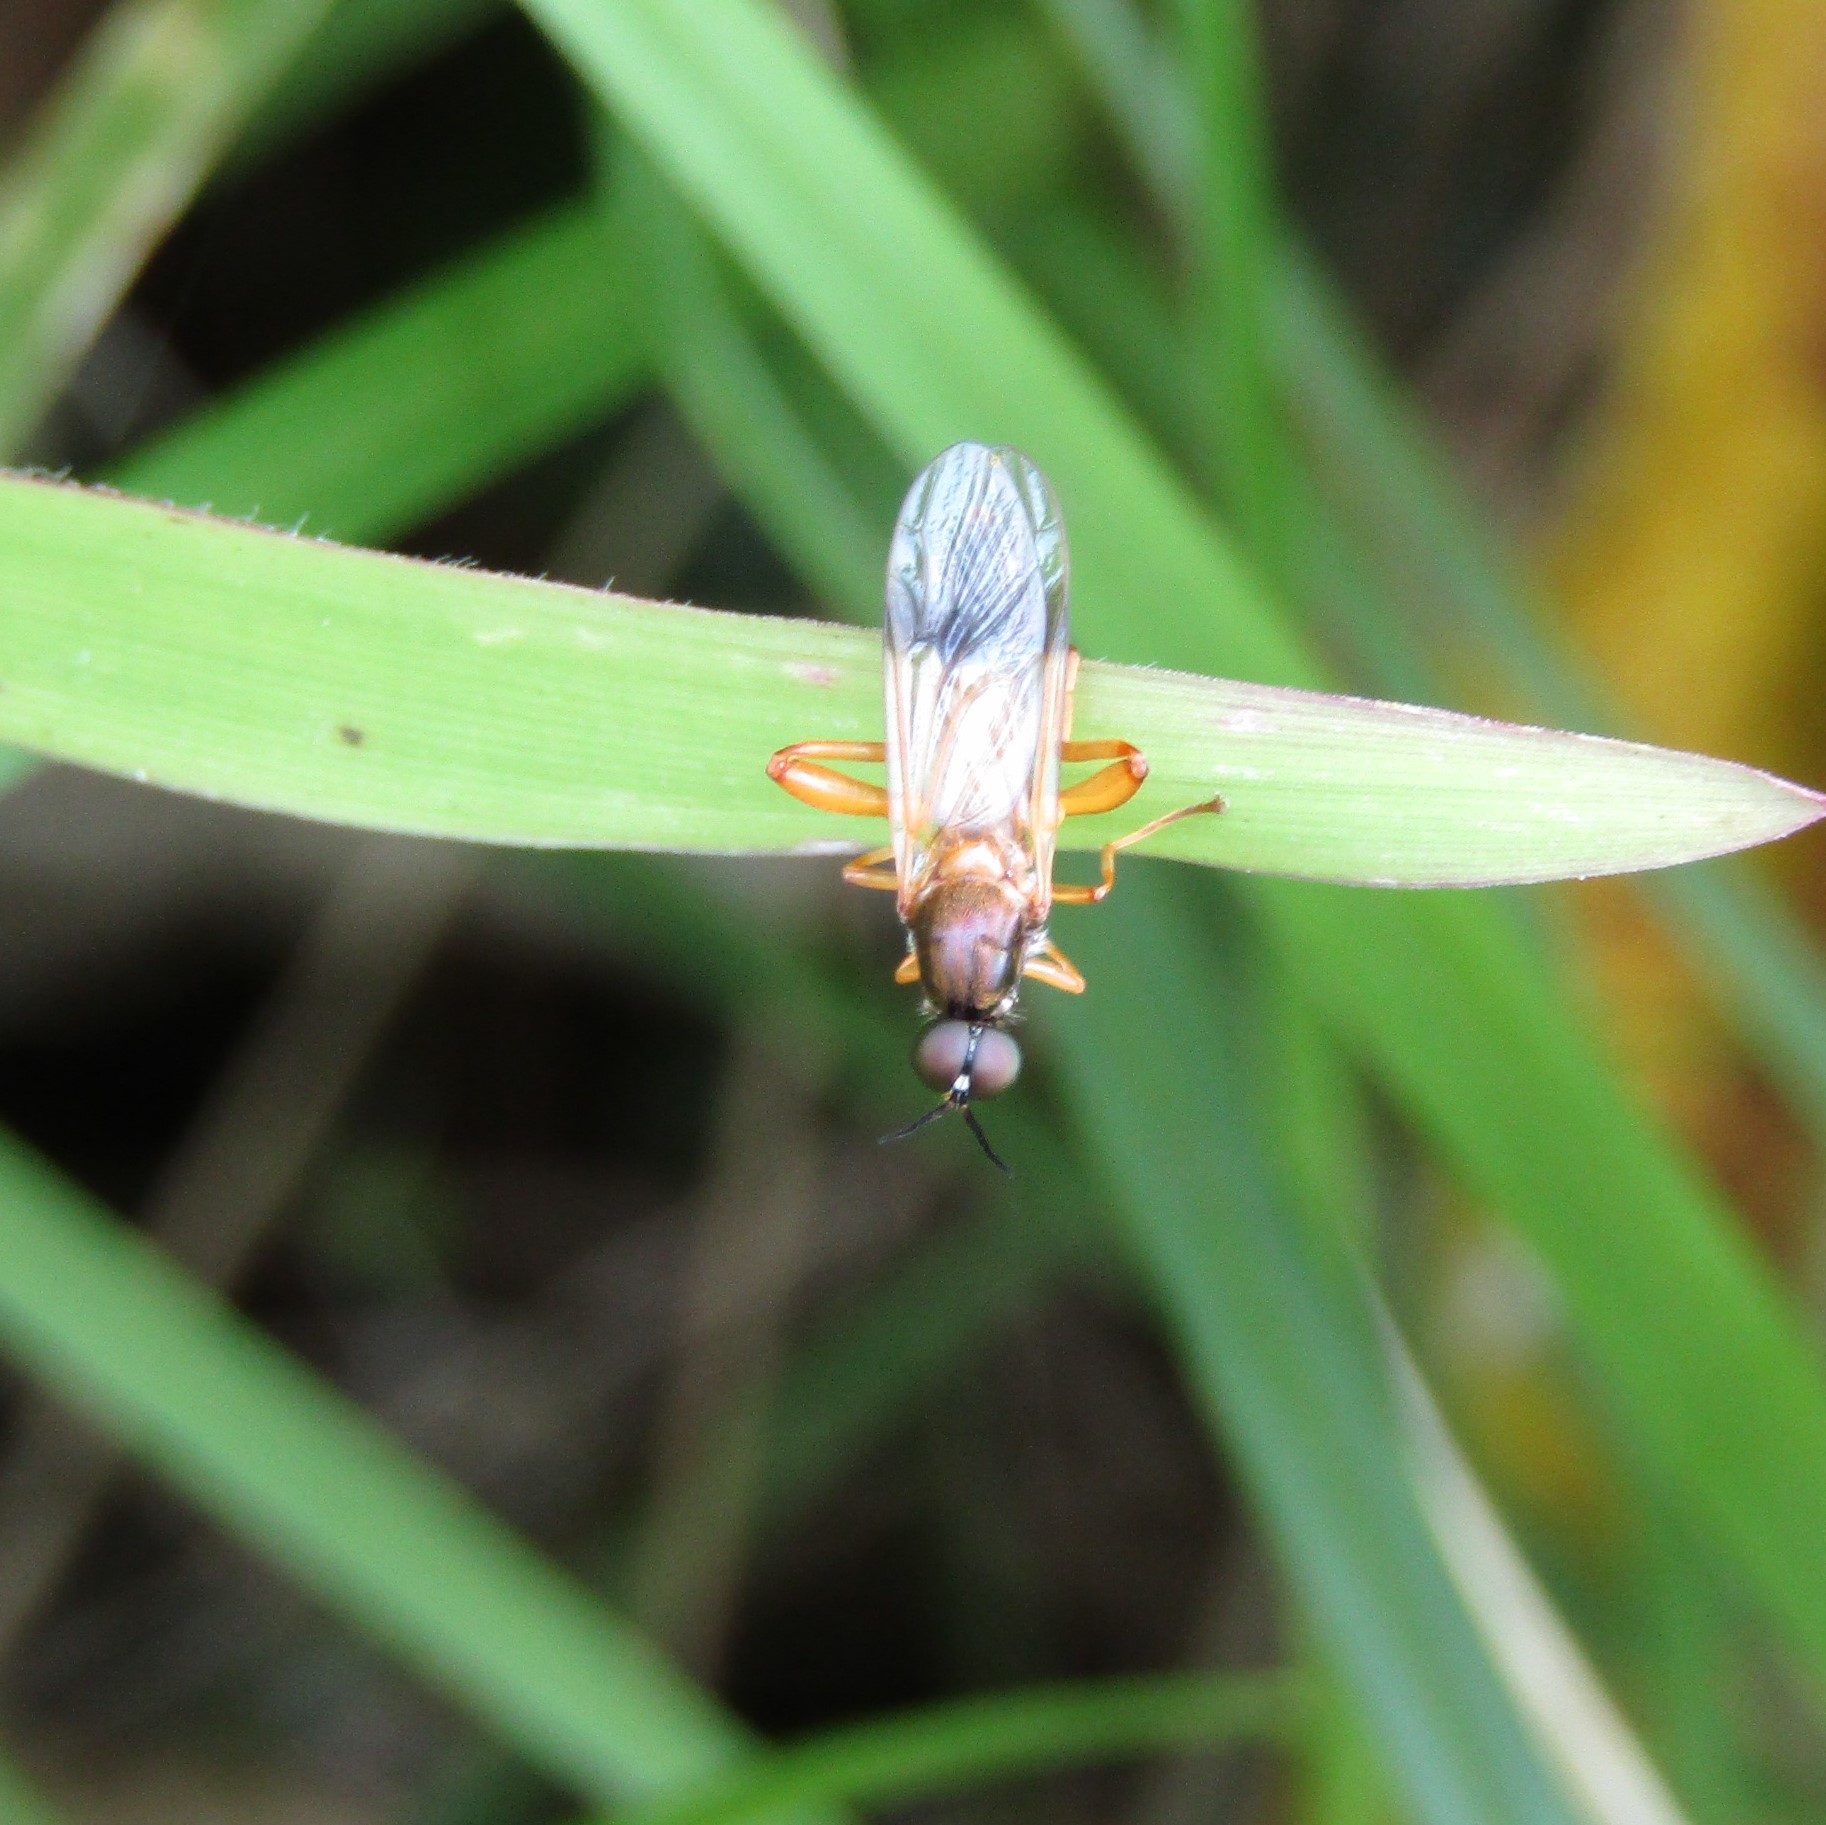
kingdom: Animalia
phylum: Arthropoda
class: Insecta
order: Diptera
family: Stratiomyidae
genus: Benhamyia
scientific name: Benhamyia apicalis
